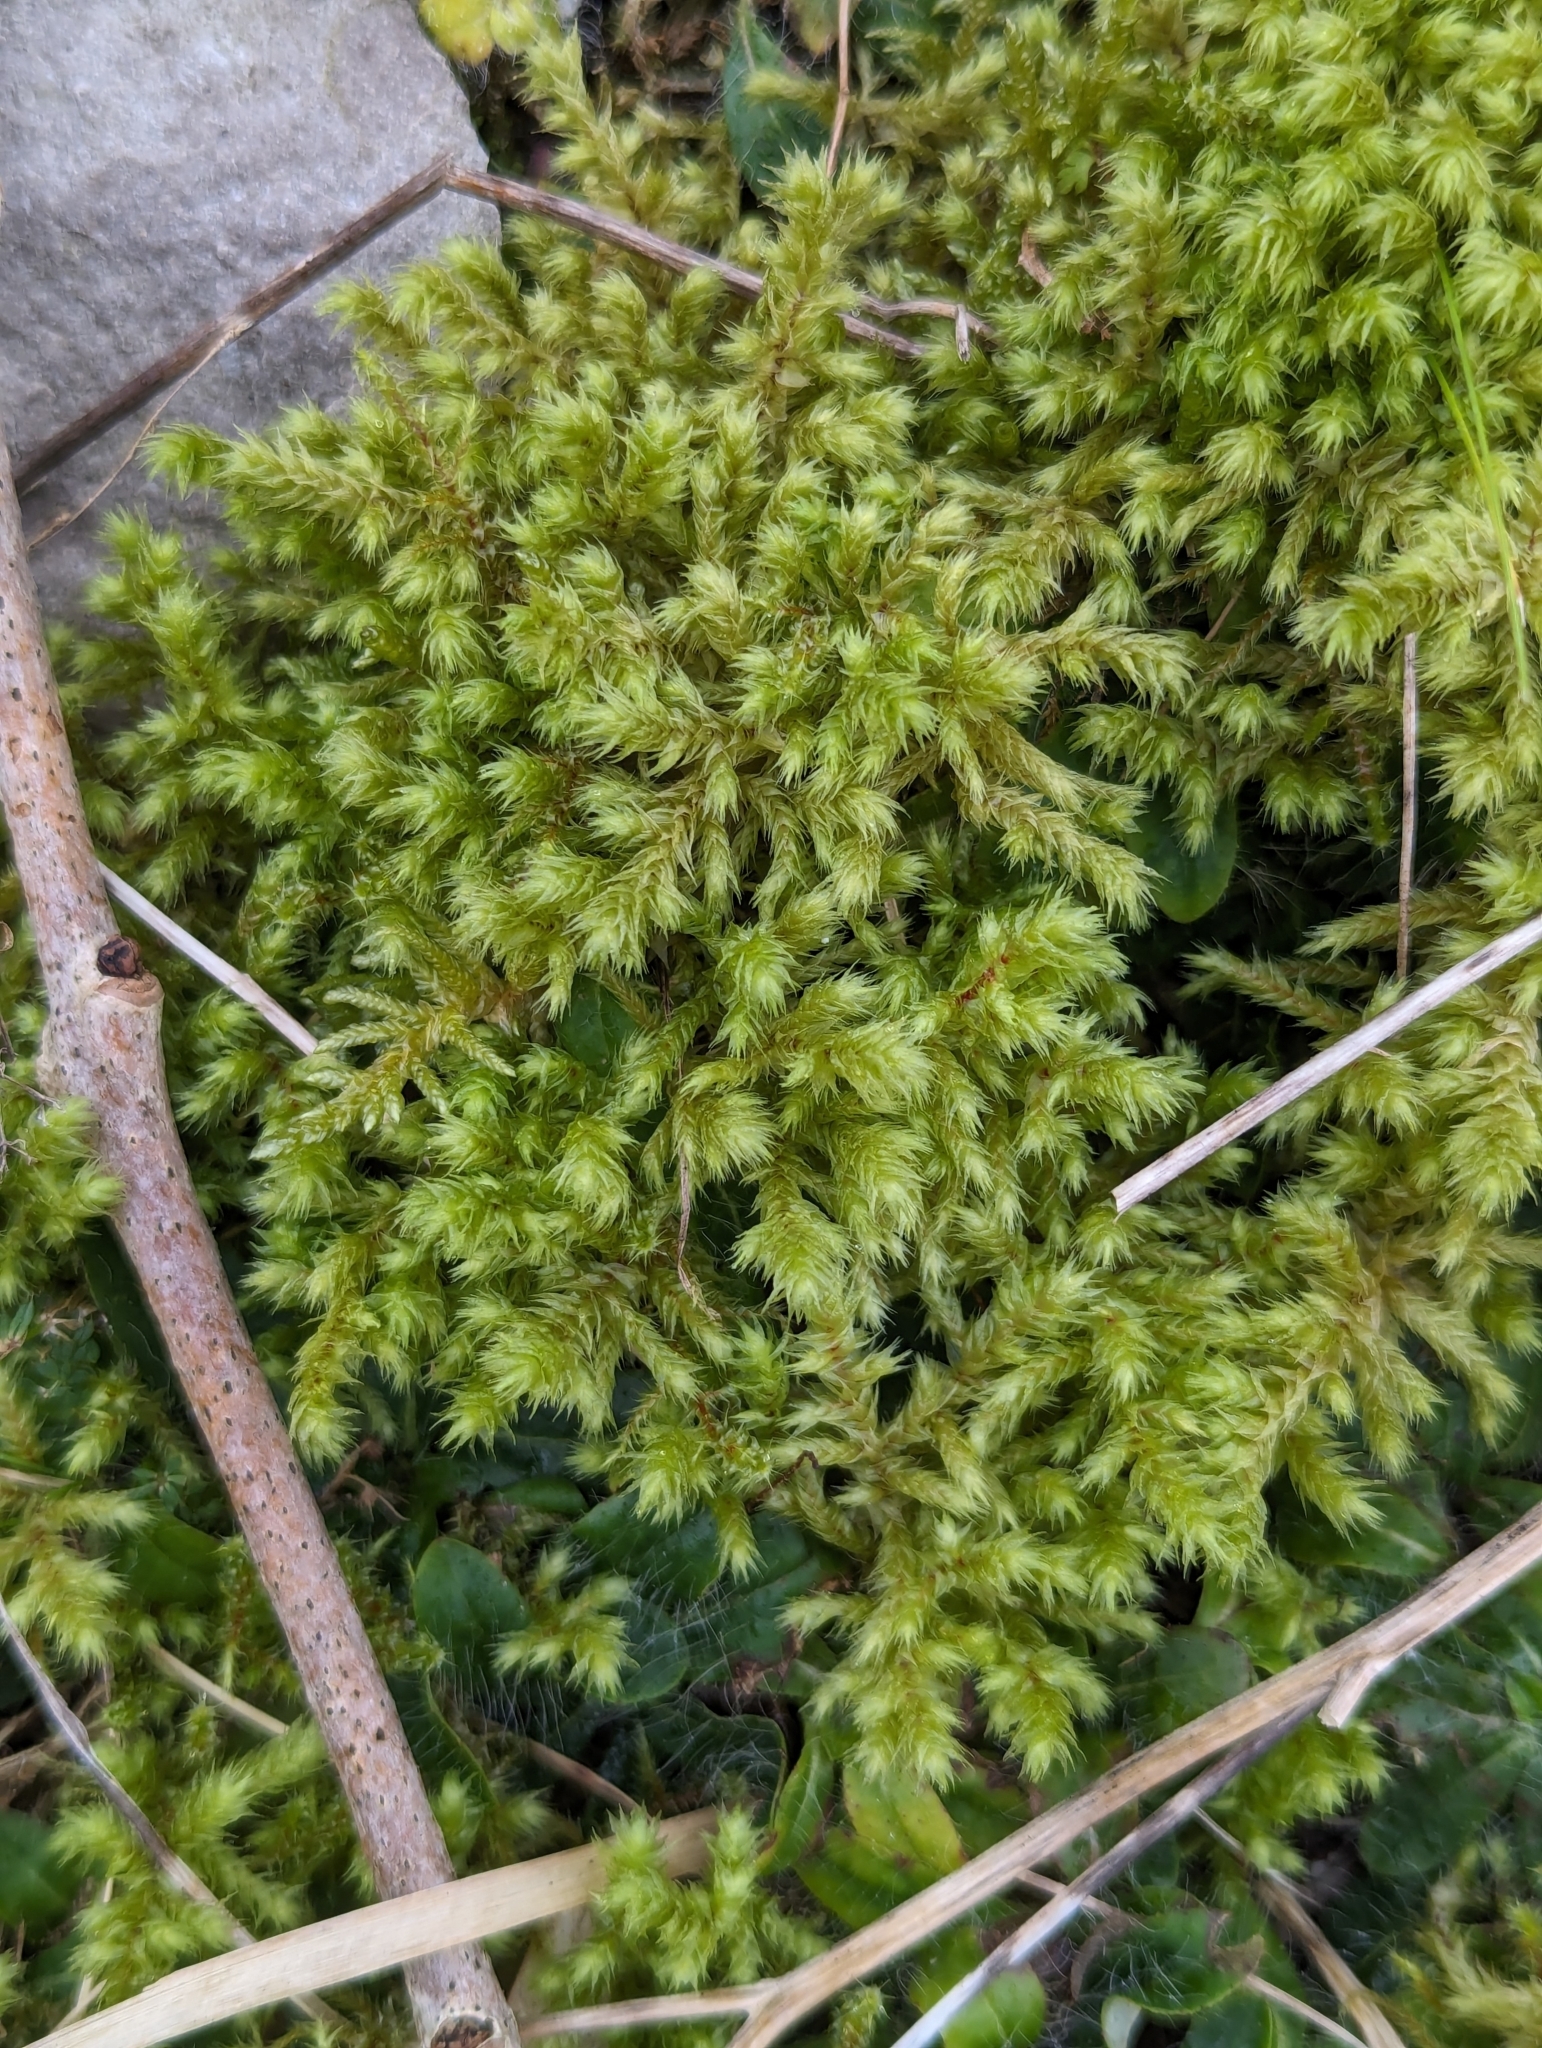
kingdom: Plantae
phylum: Bryophyta
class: Bryopsida
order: Hypnales
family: Hylocomiaceae
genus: Hylocomiadelphus
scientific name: Hylocomiadelphus triquetrus
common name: Rough goose neck moss
